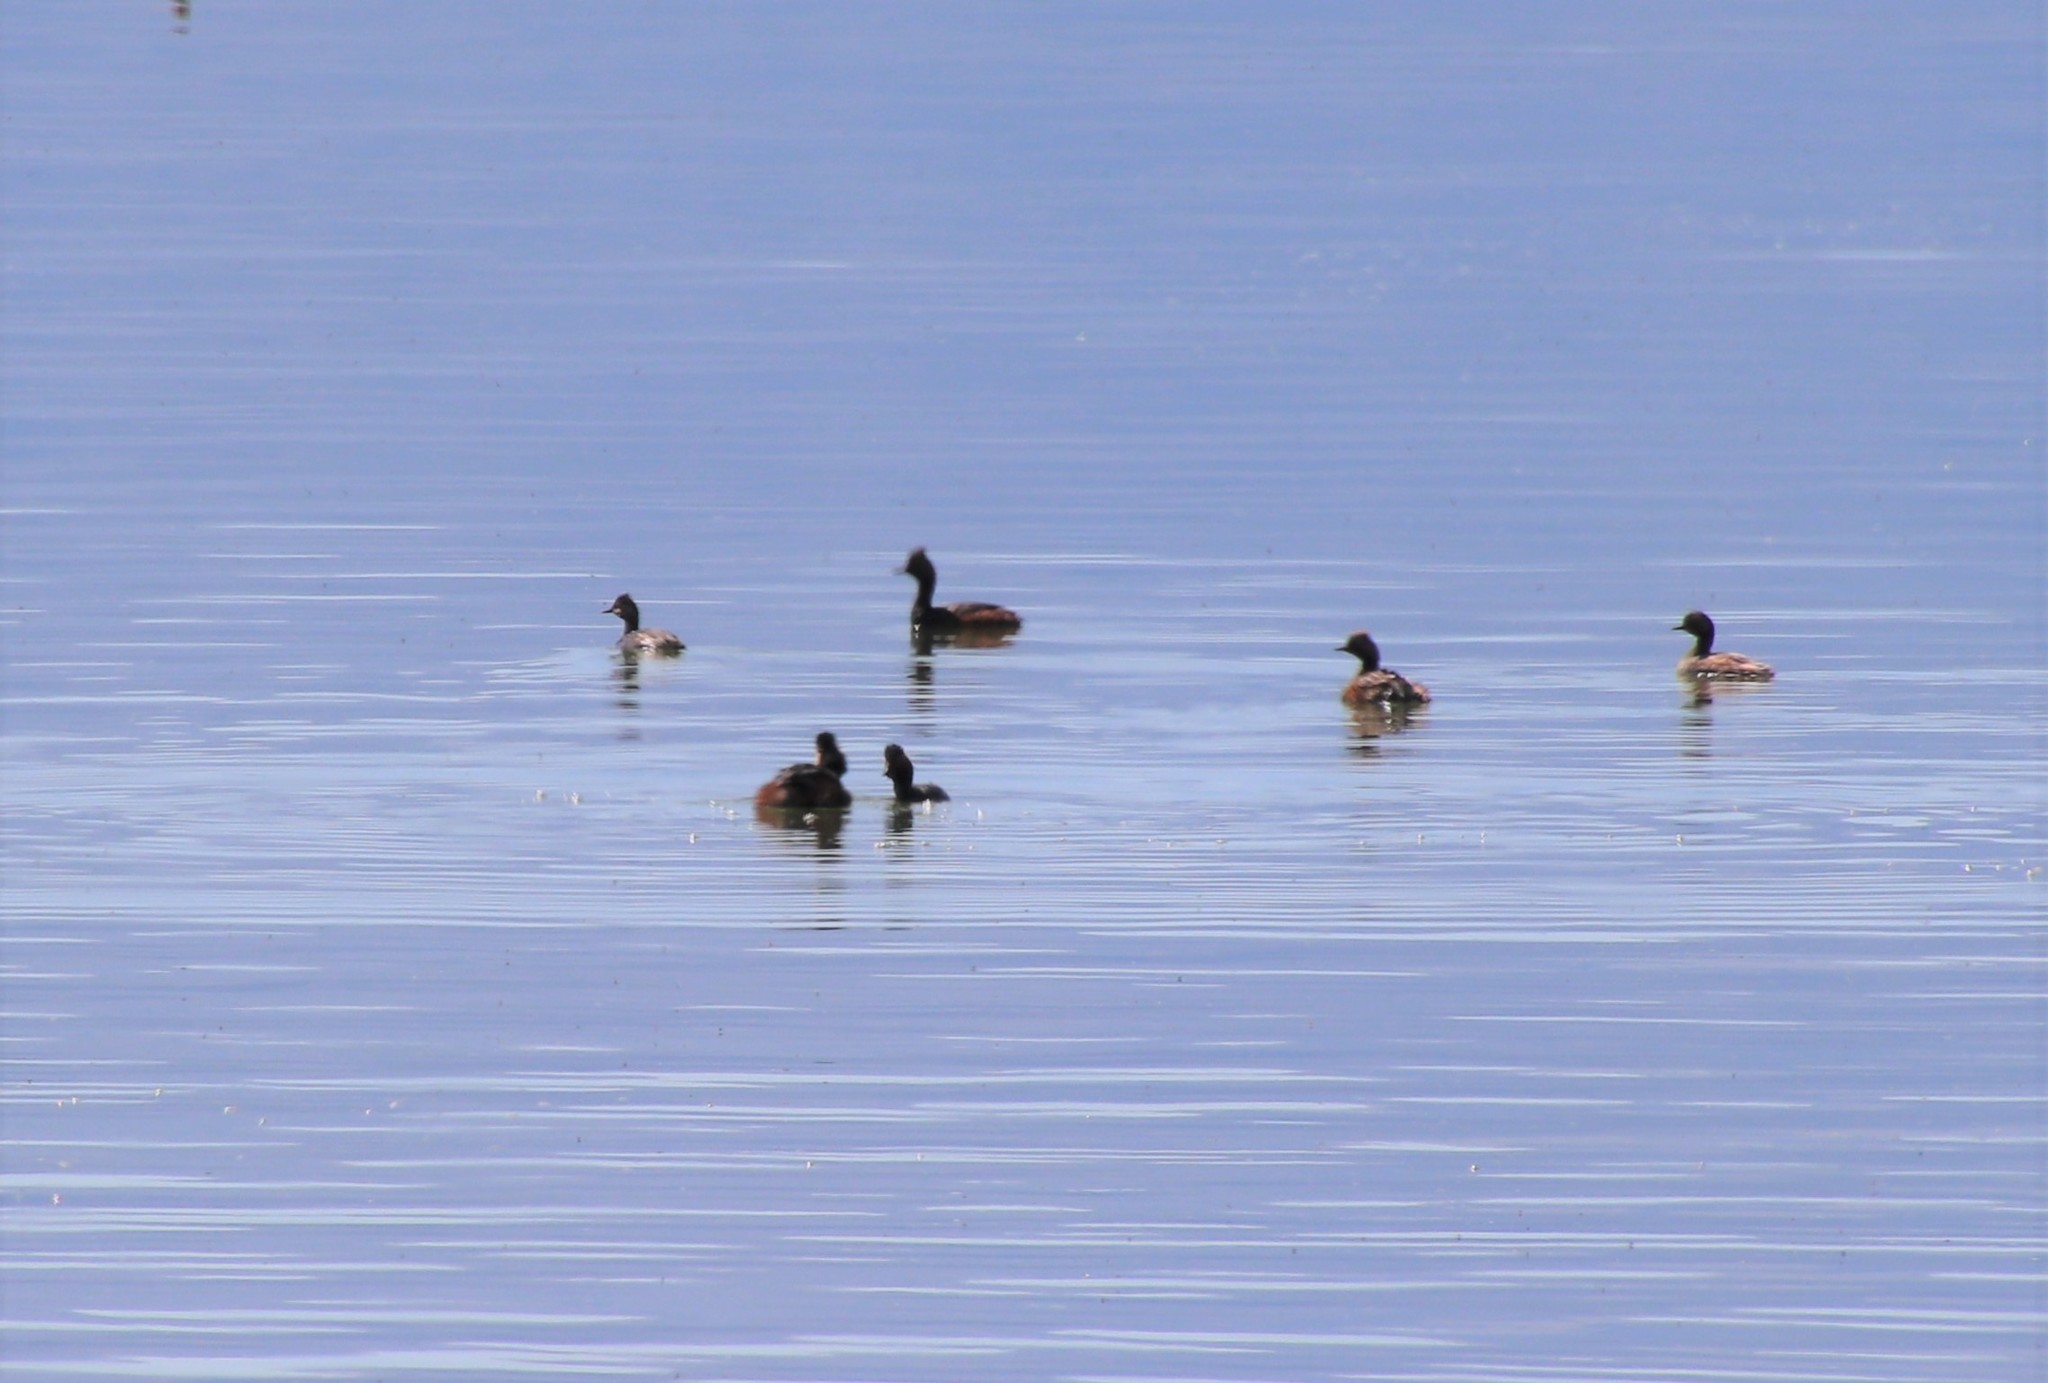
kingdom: Animalia
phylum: Chordata
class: Aves
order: Podicipediformes
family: Podicipedidae
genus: Podiceps
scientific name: Podiceps nigricollis
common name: Black-necked grebe
